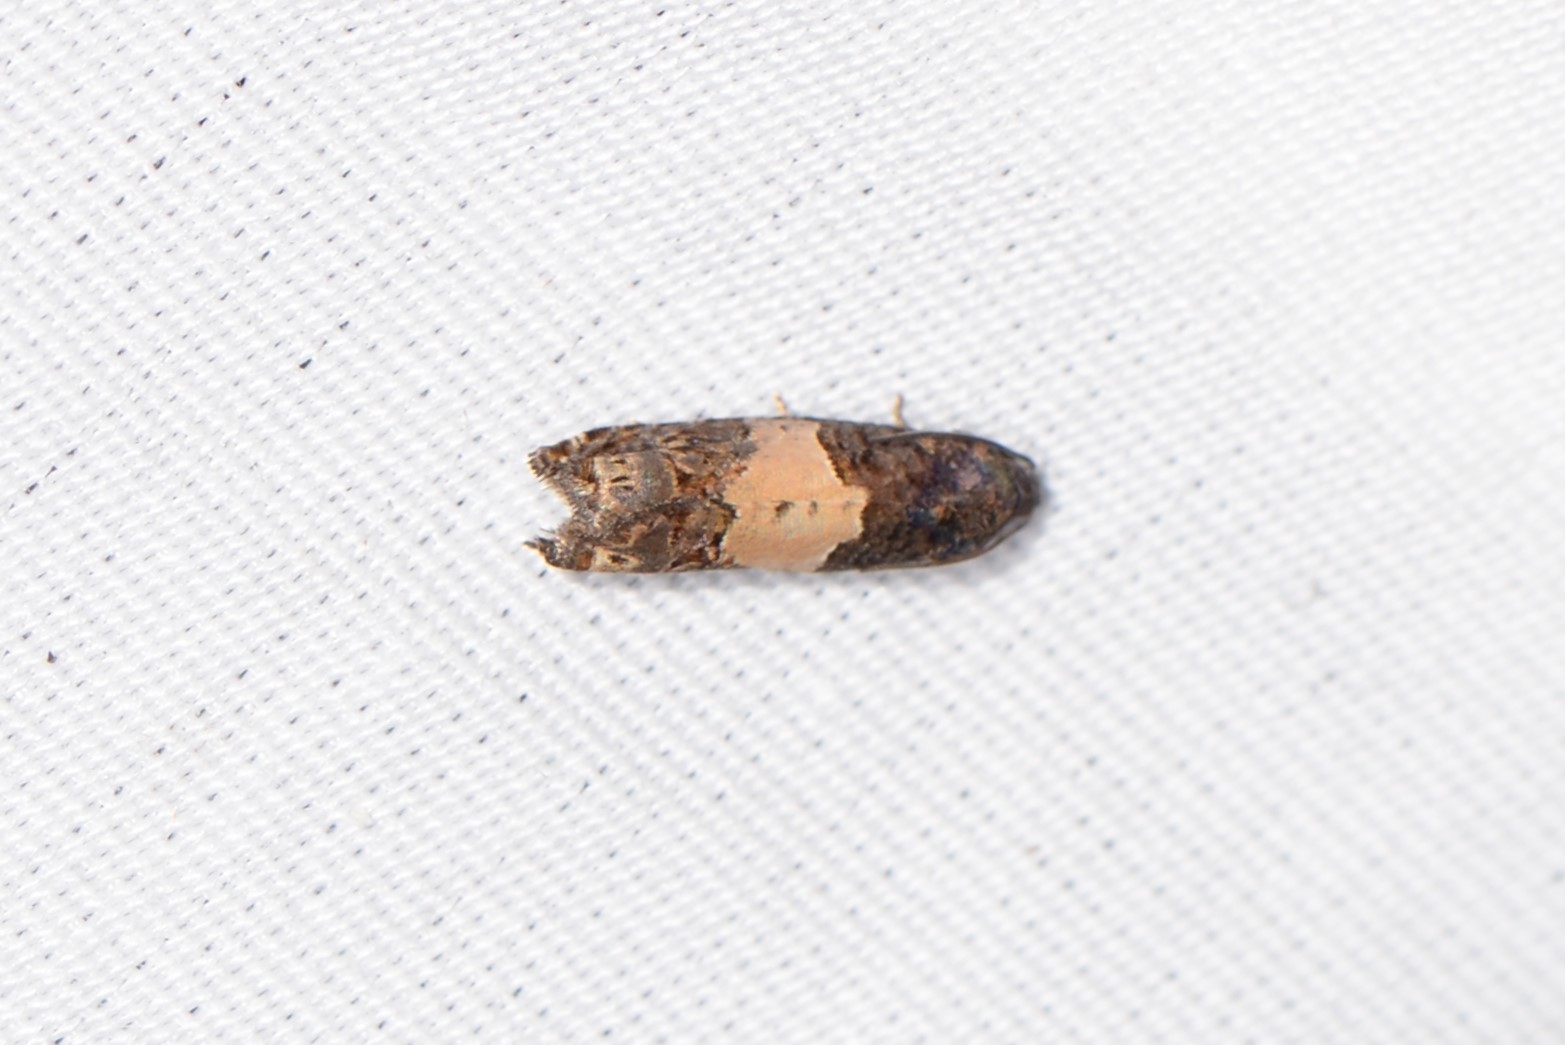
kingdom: Animalia
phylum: Arthropoda
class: Insecta
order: Lepidoptera
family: Tortricidae
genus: Epiblema
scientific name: Epiblema glenni
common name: Glenn's epiblema
